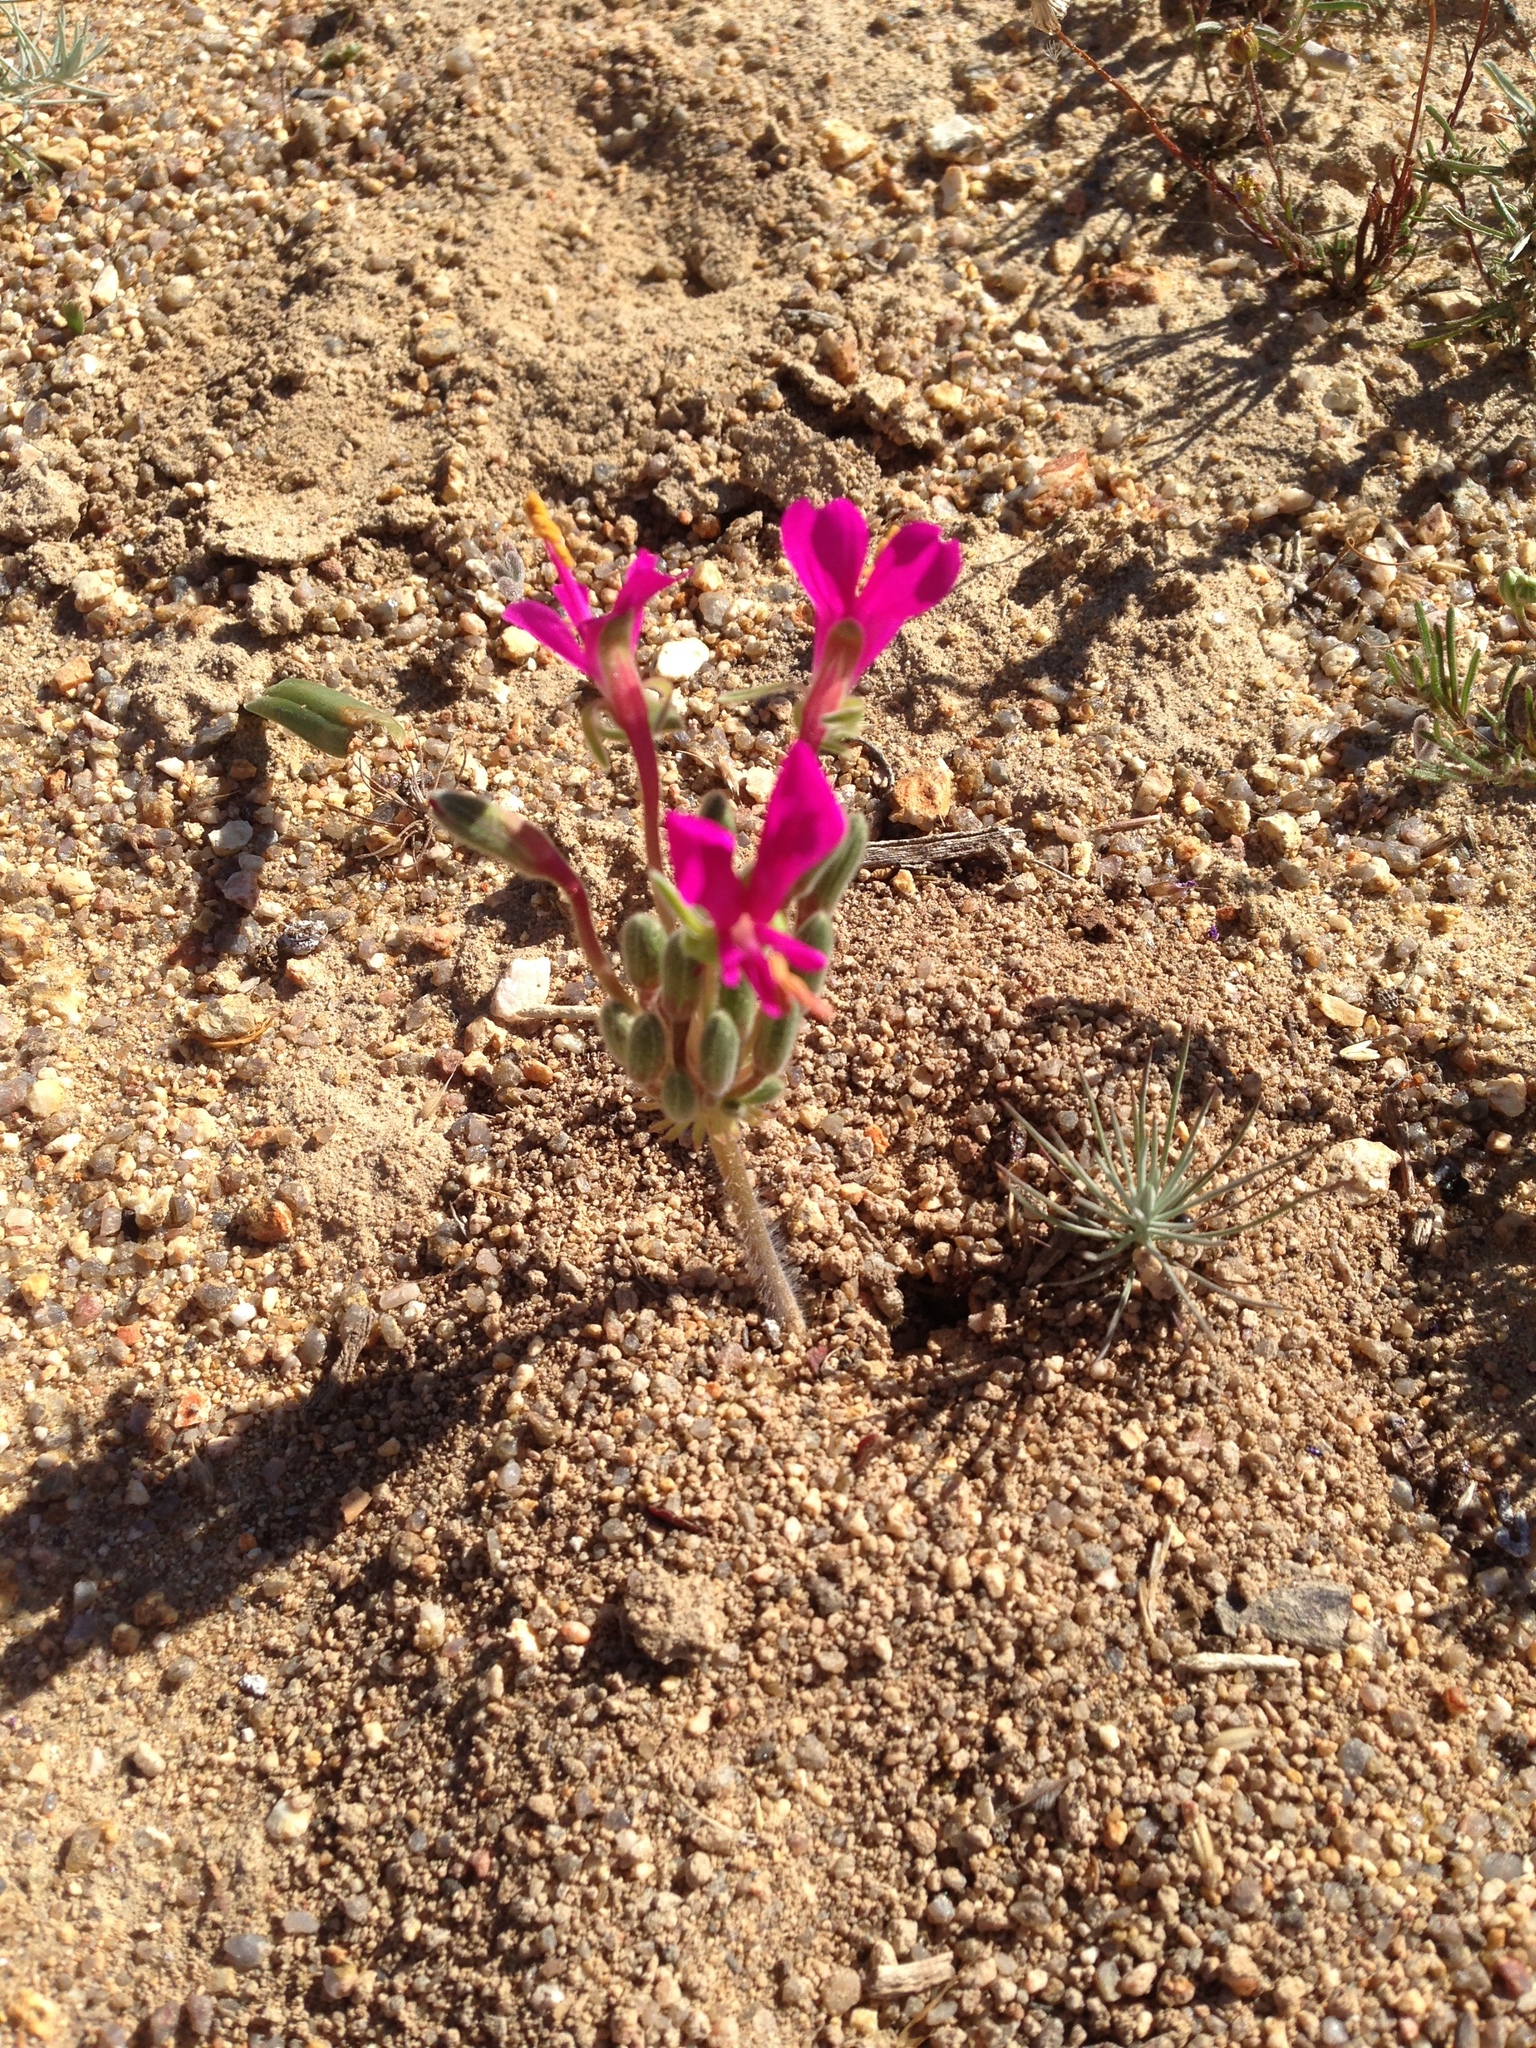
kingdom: Plantae
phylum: Tracheophyta
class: Magnoliopsida
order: Geraniales
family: Geraniaceae
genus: Pelargonium
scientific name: Pelargonium incrassatum
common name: Namaqualand beauty
